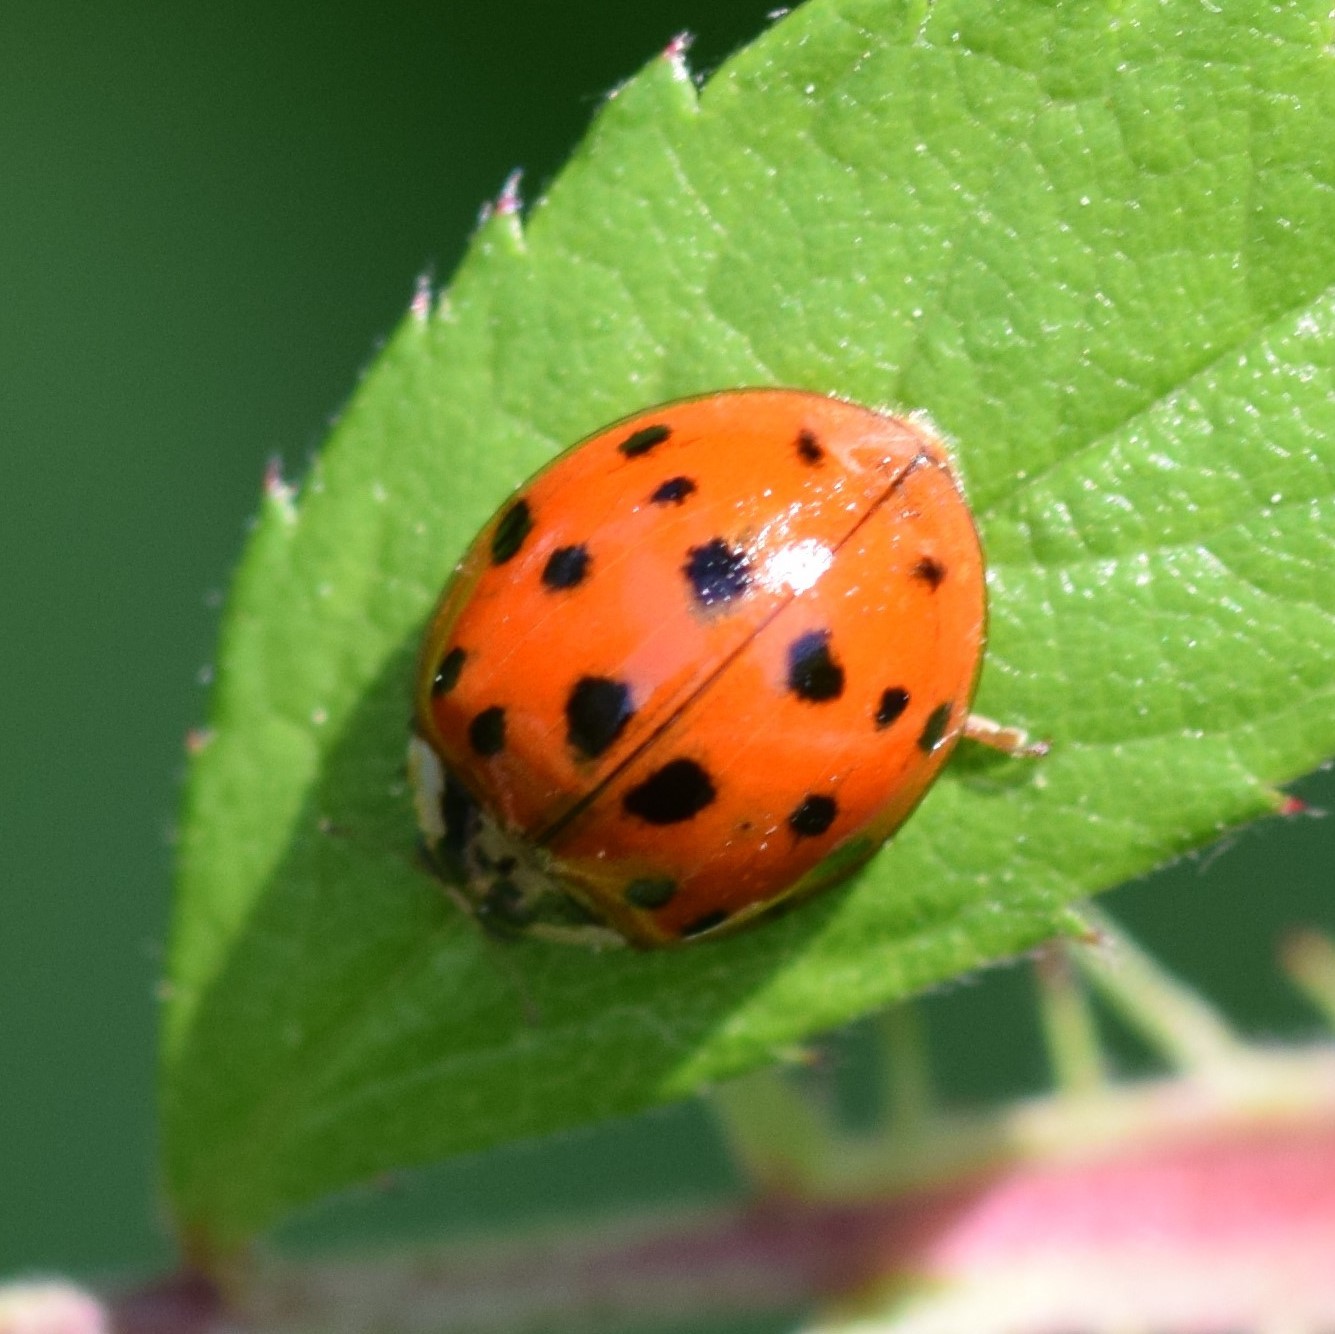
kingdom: Animalia
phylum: Arthropoda
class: Insecta
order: Coleoptera
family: Coccinellidae
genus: Harmonia
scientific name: Harmonia axyridis
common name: Harlequin ladybird
